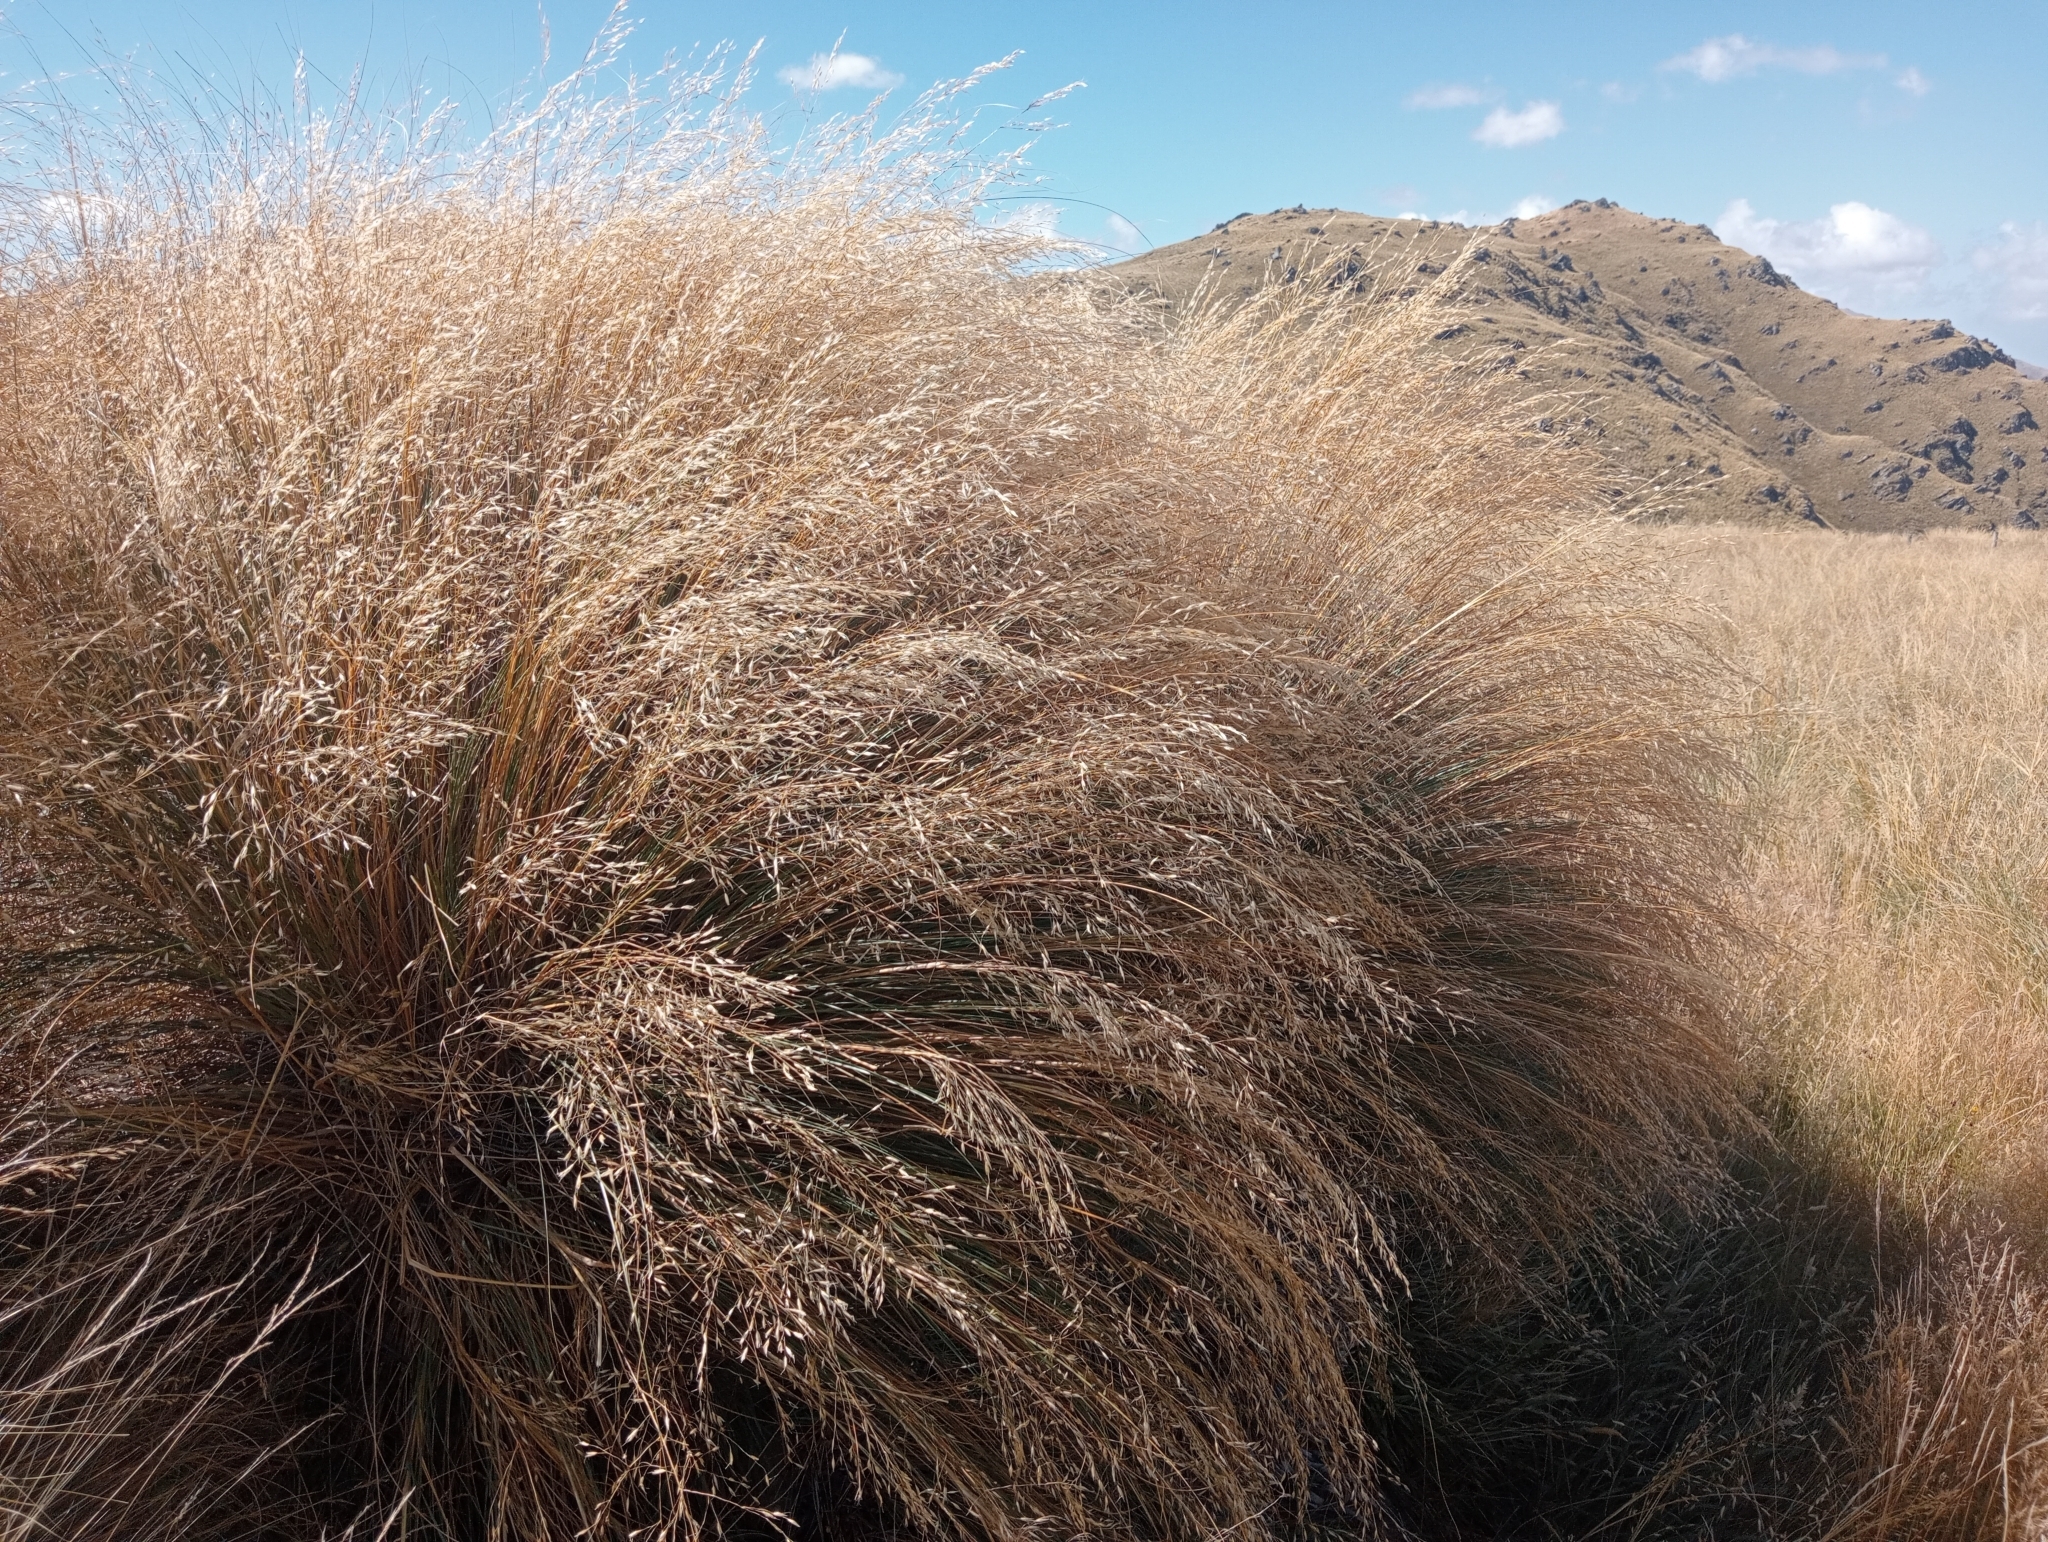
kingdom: Plantae
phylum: Tracheophyta
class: Liliopsida
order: Poales
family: Poaceae
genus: Chionochloa
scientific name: Chionochloa rigida
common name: Narrow leaved snow tussock
